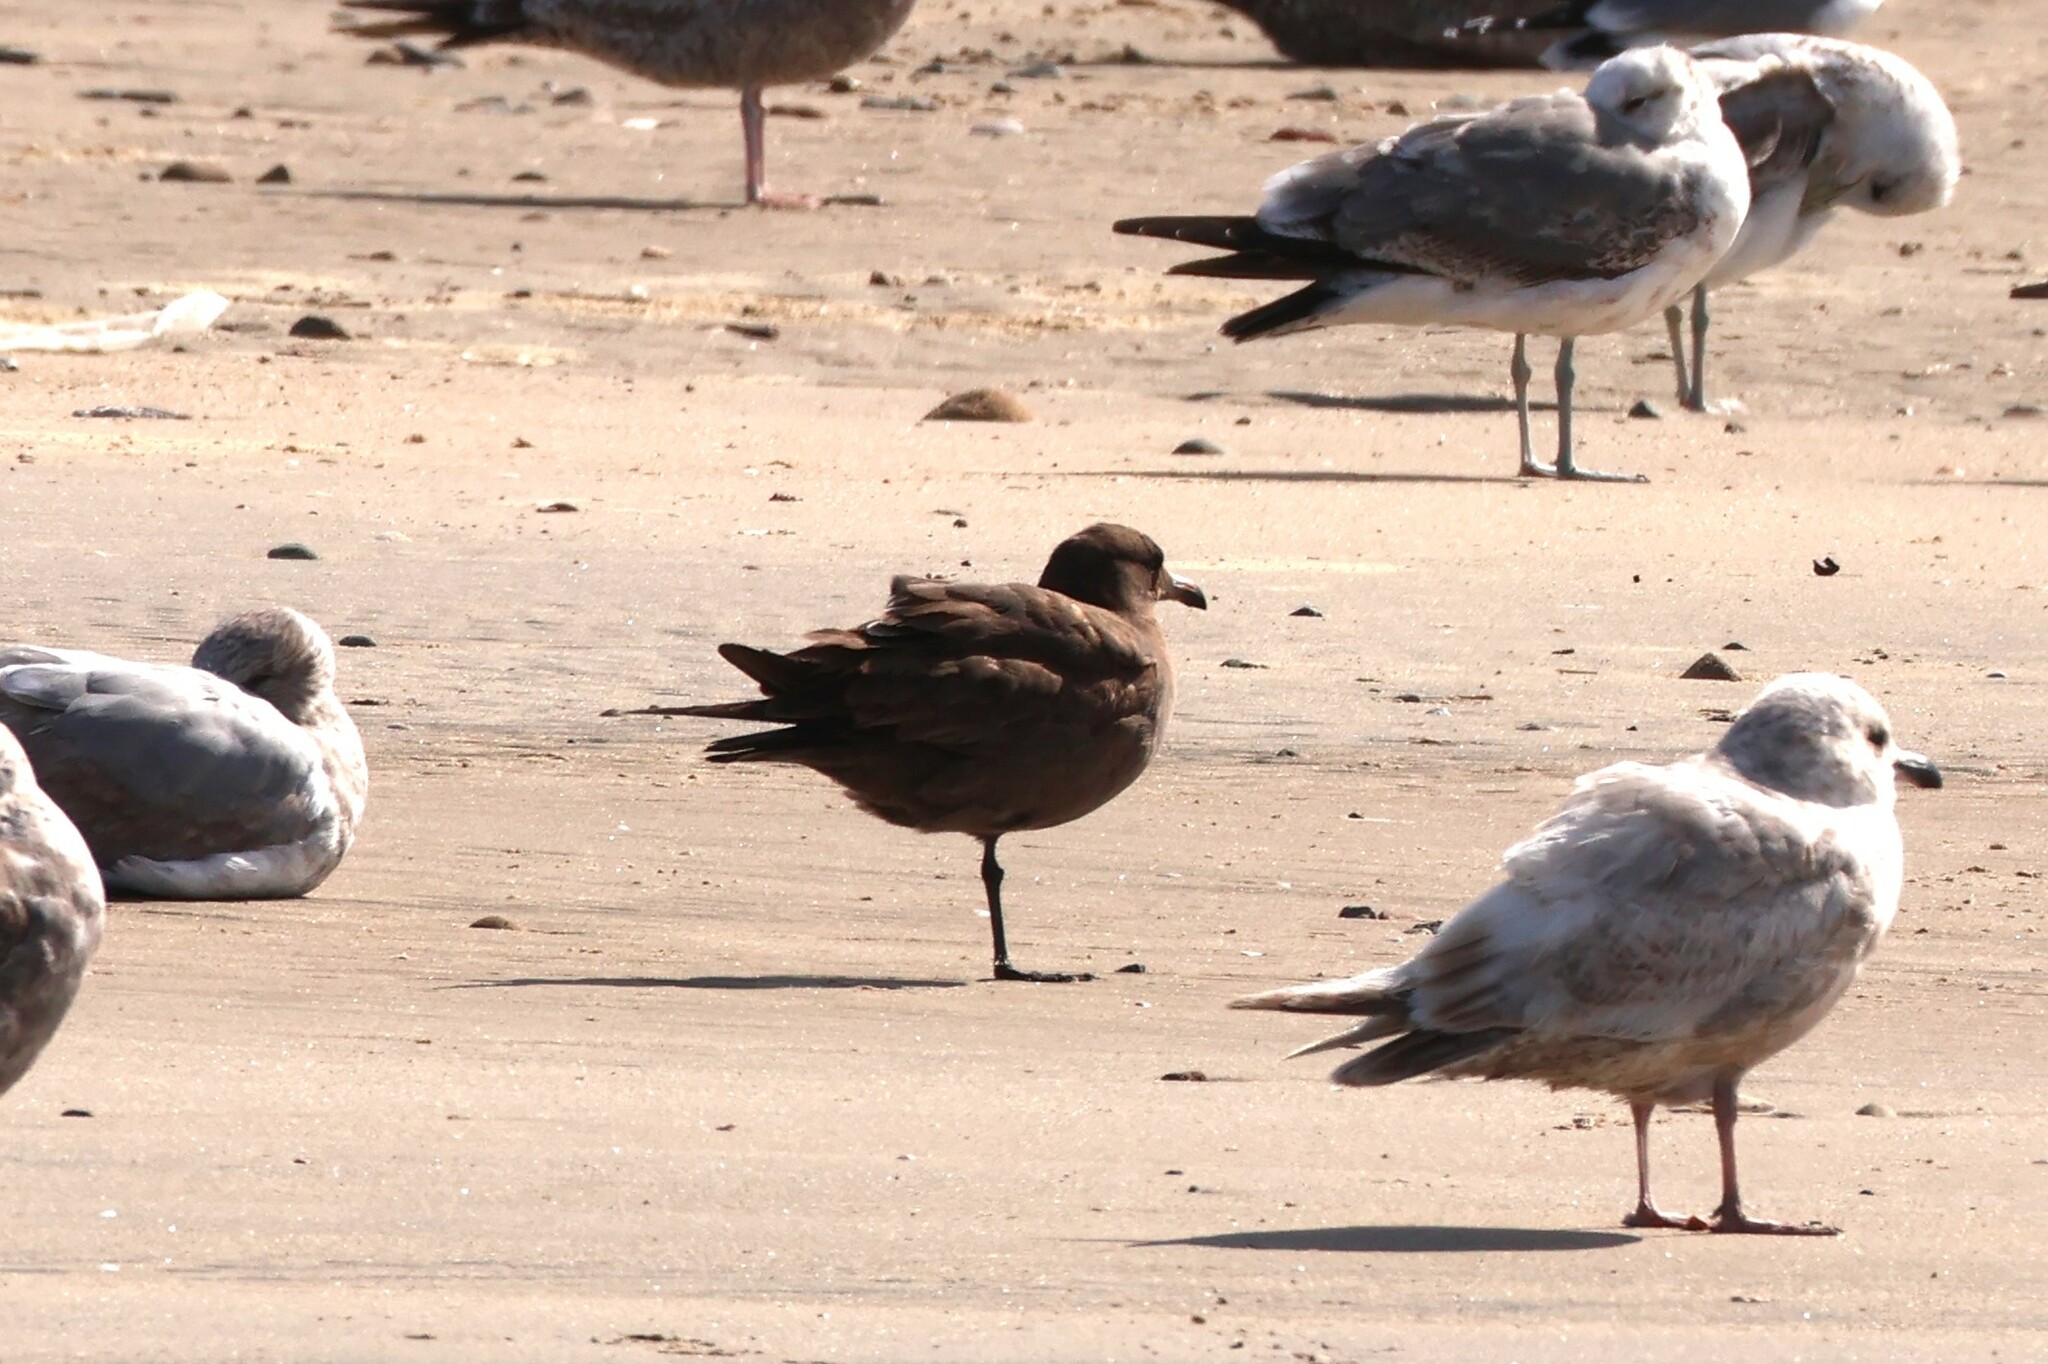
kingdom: Animalia
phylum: Chordata
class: Aves
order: Charadriiformes
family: Laridae
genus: Larus
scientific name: Larus heermanni
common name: Heermann's gull
